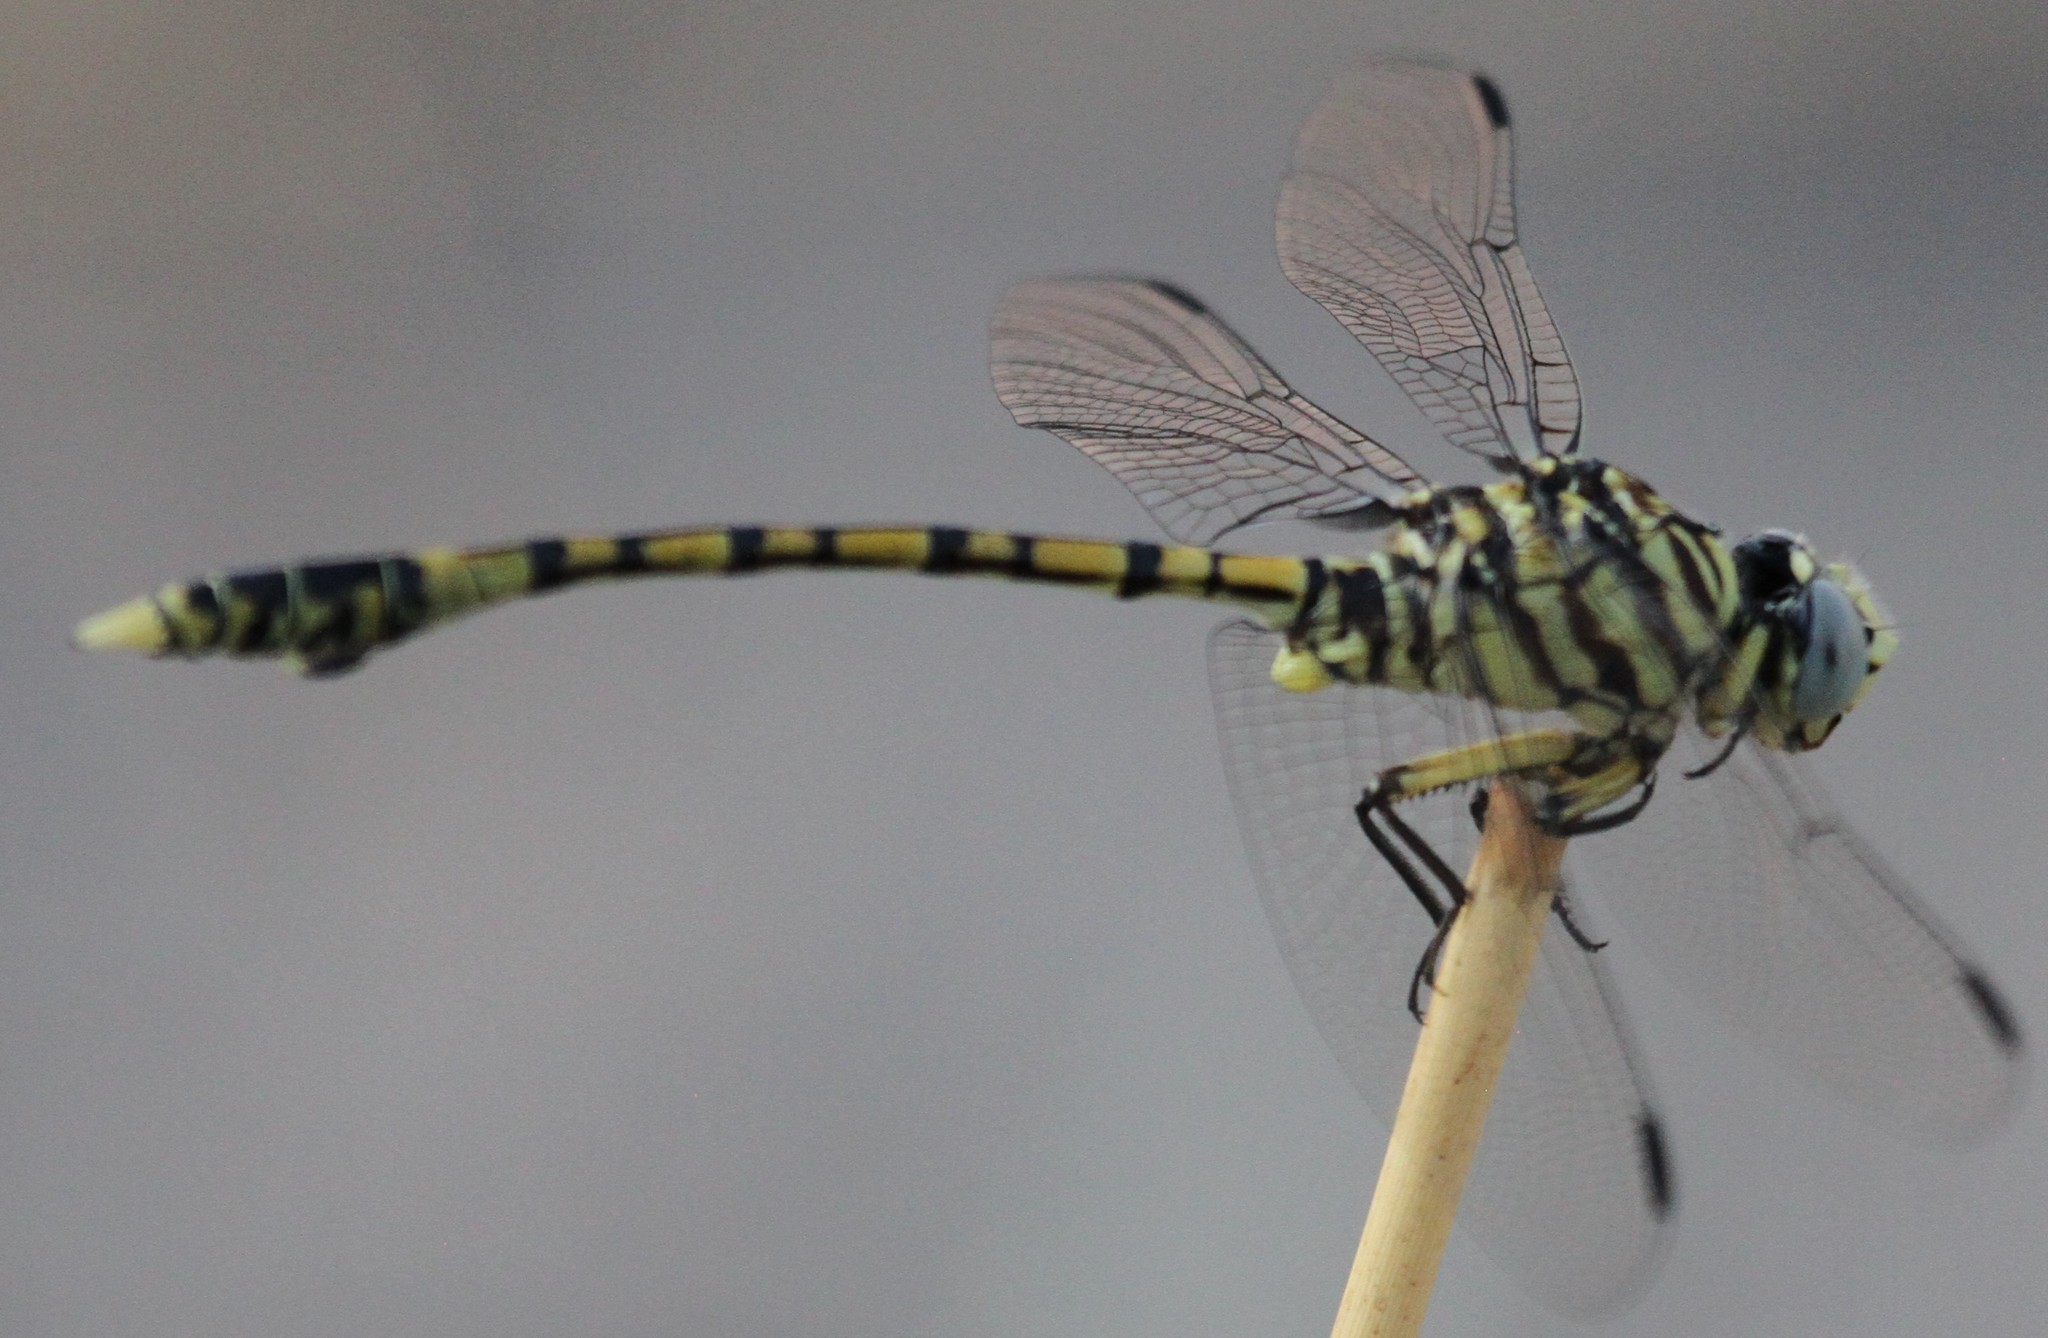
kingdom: Animalia
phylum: Arthropoda
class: Insecta
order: Odonata
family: Gomphidae
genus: Ictinogomphus
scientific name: Ictinogomphus dundoensis
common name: Swamp tigertail
